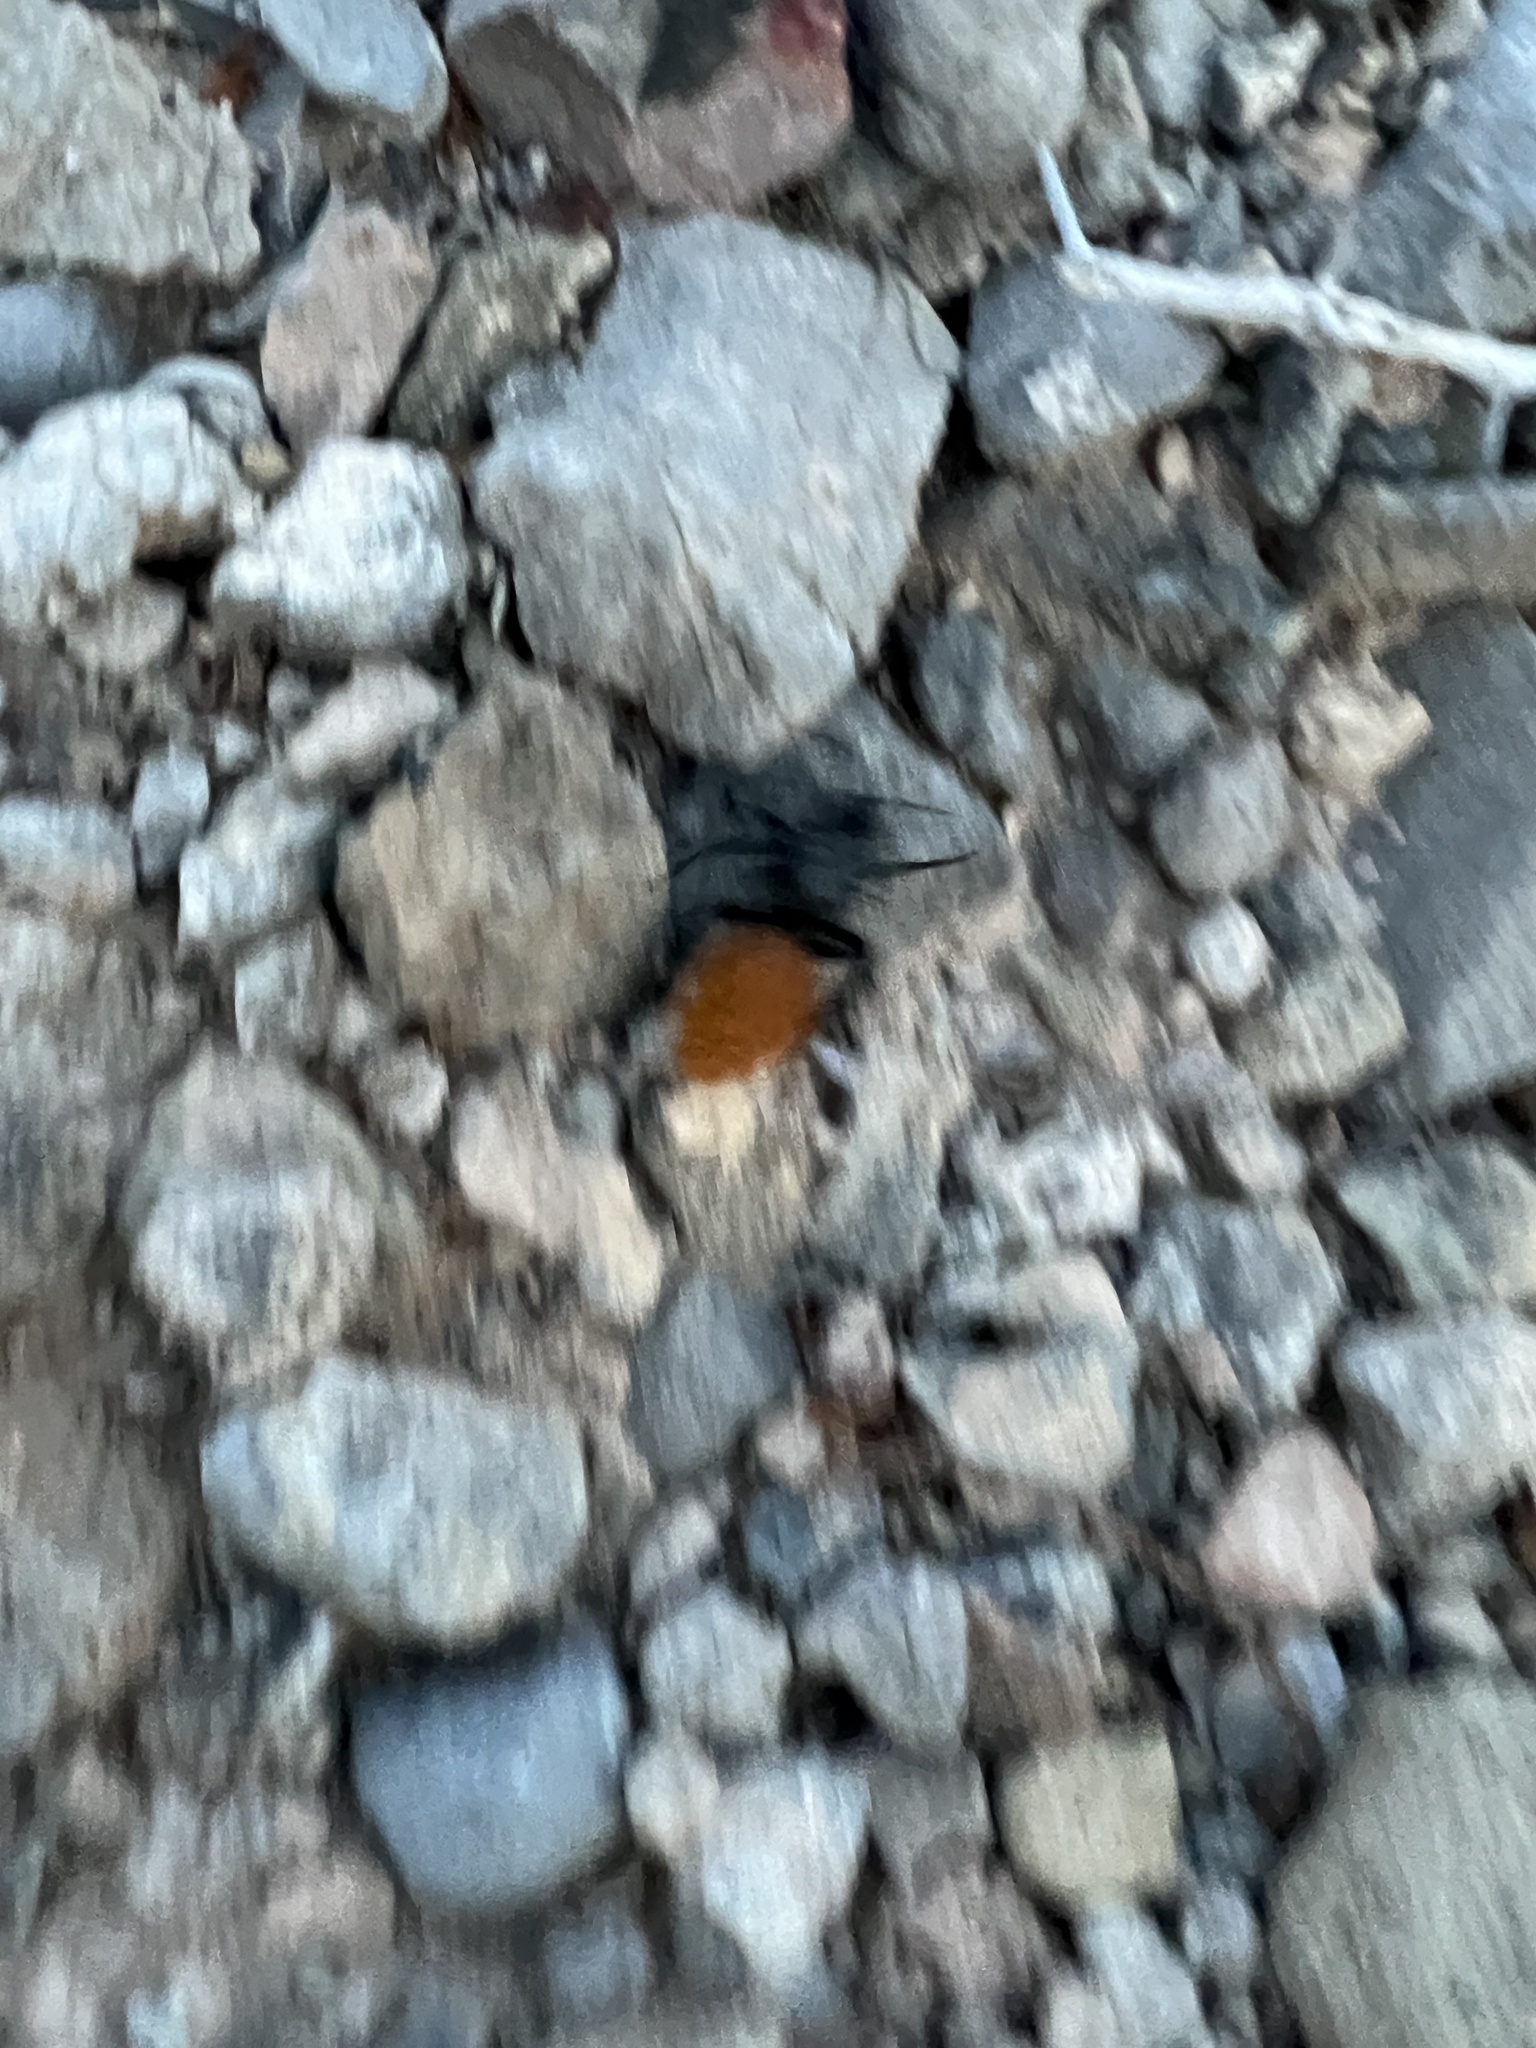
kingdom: Animalia
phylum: Arthropoda
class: Insecta
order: Hymenoptera
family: Mutillidae
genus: Dasymutilla
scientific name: Dasymutilla
